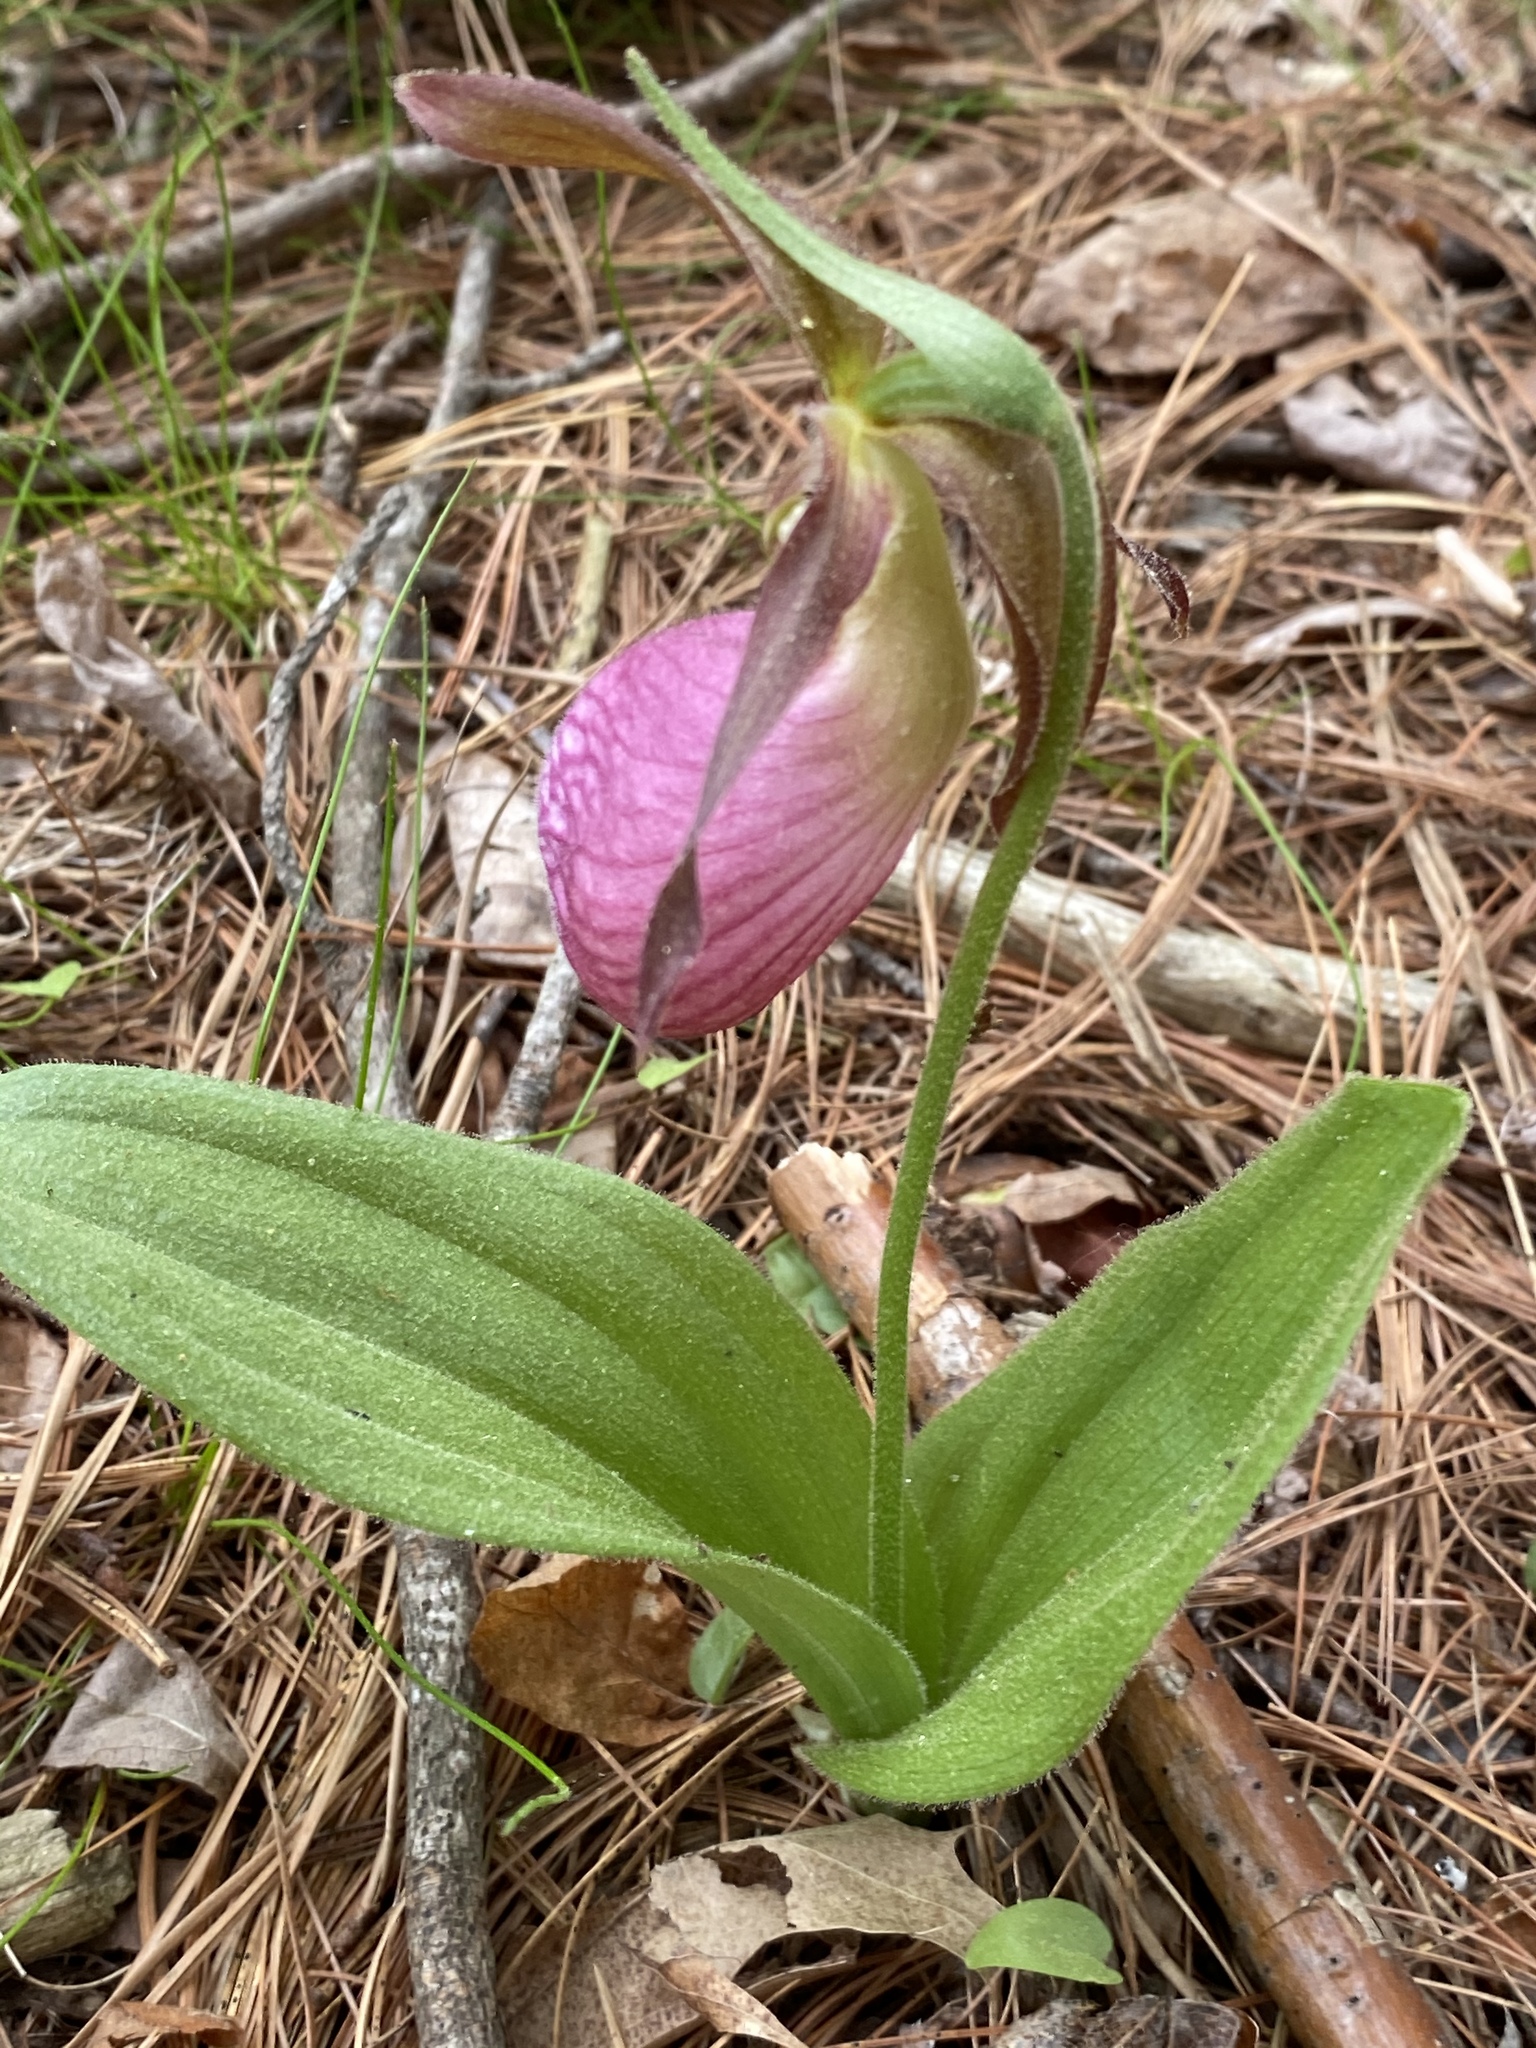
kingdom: Plantae
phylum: Tracheophyta
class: Liliopsida
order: Asparagales
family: Orchidaceae
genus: Cypripedium
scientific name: Cypripedium acaule
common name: Pink lady's-slipper
